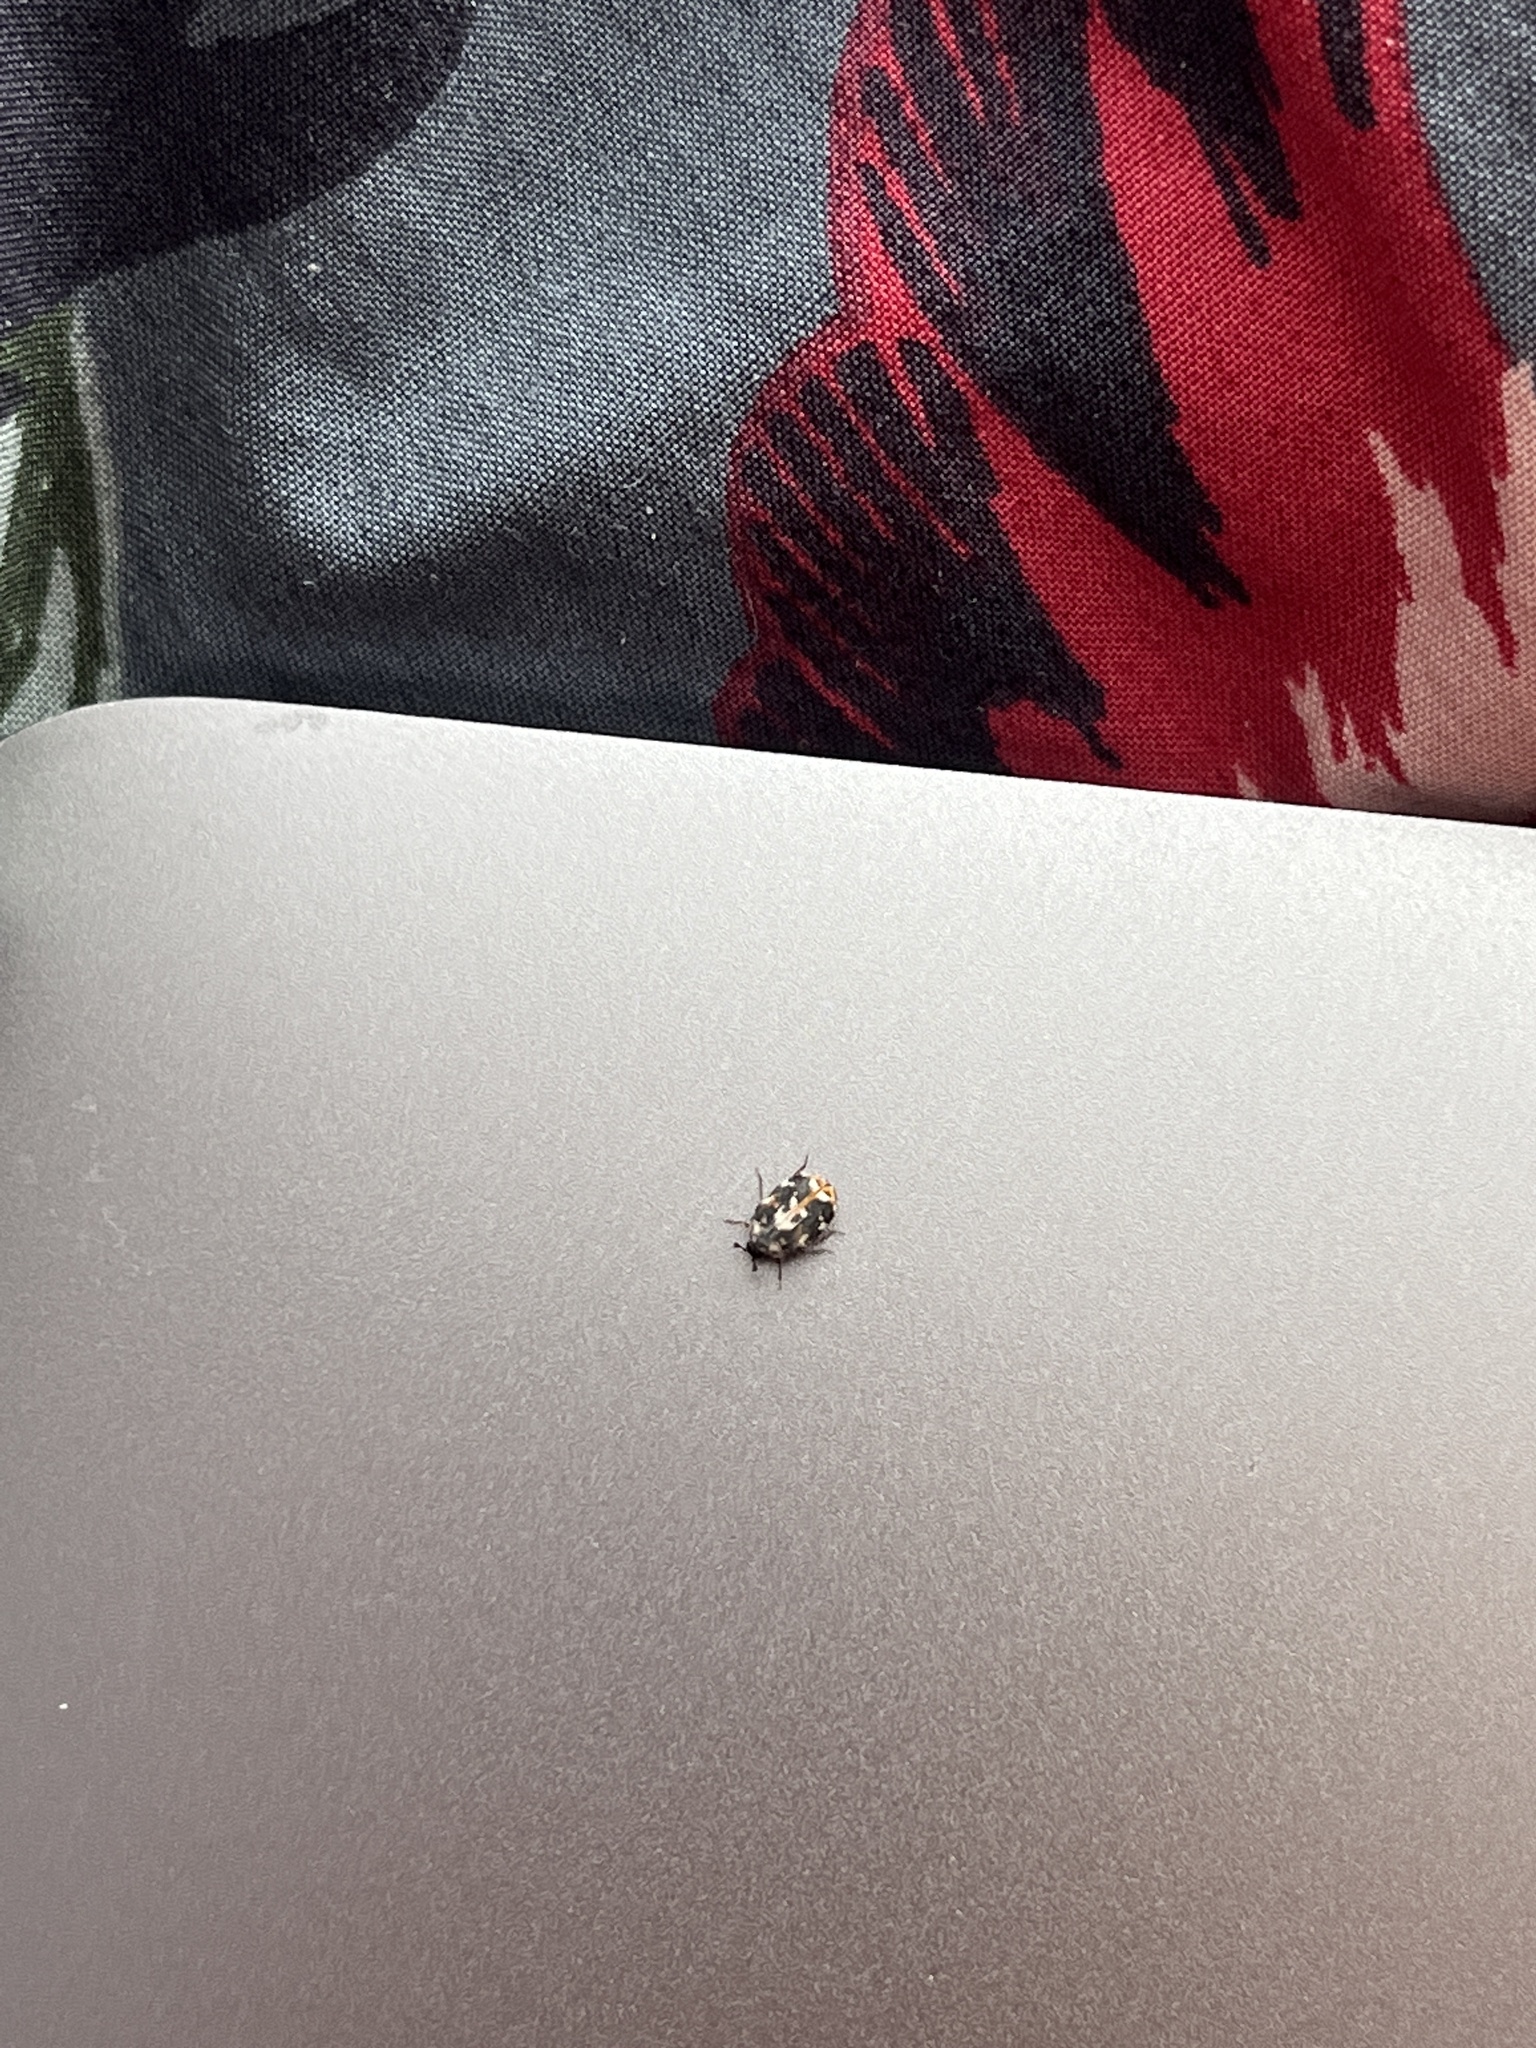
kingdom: Animalia
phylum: Arthropoda
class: Insecta
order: Coleoptera
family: Dermestidae
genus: Anthrenus
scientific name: Anthrenus picturatus
